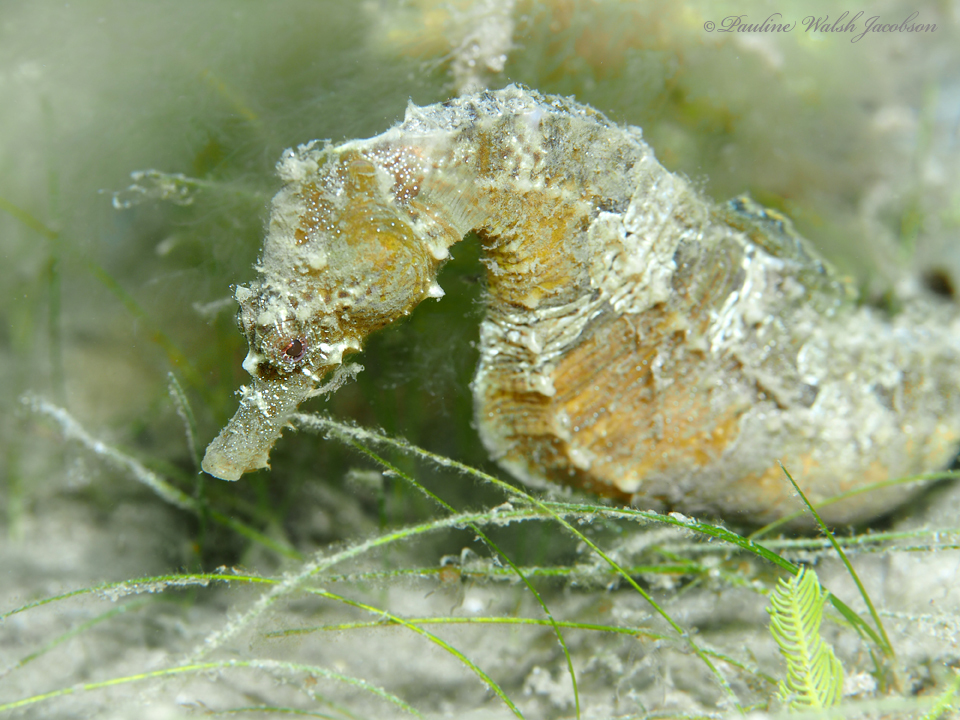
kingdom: Animalia
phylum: Chordata
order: Syngnathiformes
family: Syngnathidae
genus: Hippocampus
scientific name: Hippocampus erectus
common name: Lined seahorse
